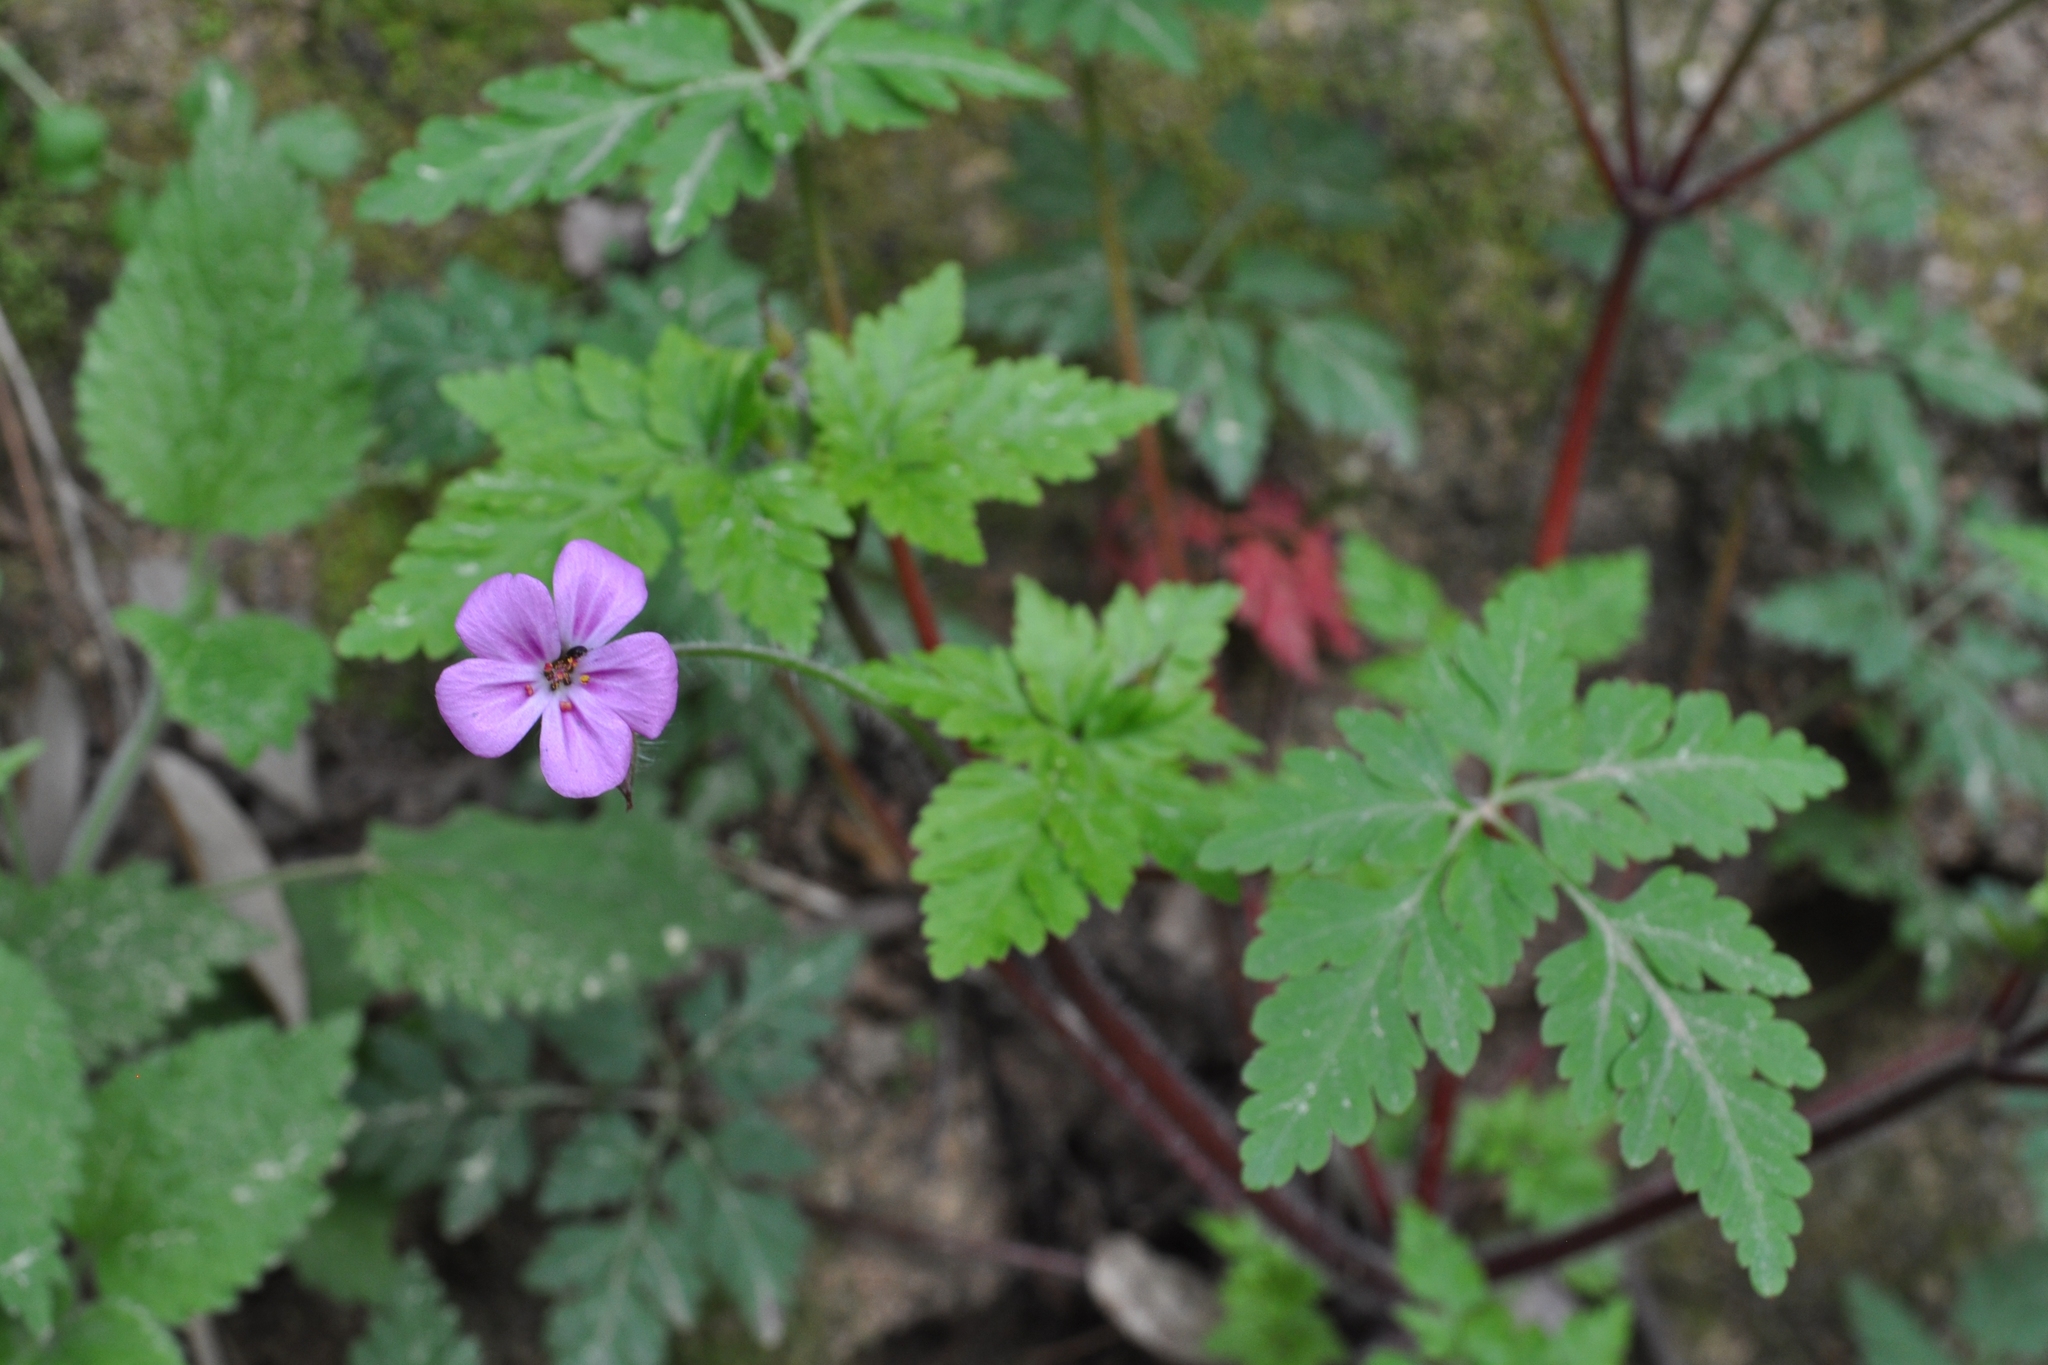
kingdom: Plantae
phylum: Tracheophyta
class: Magnoliopsida
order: Geraniales
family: Geraniaceae
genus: Geranium
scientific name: Geranium robertianum
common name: Herb-robert
